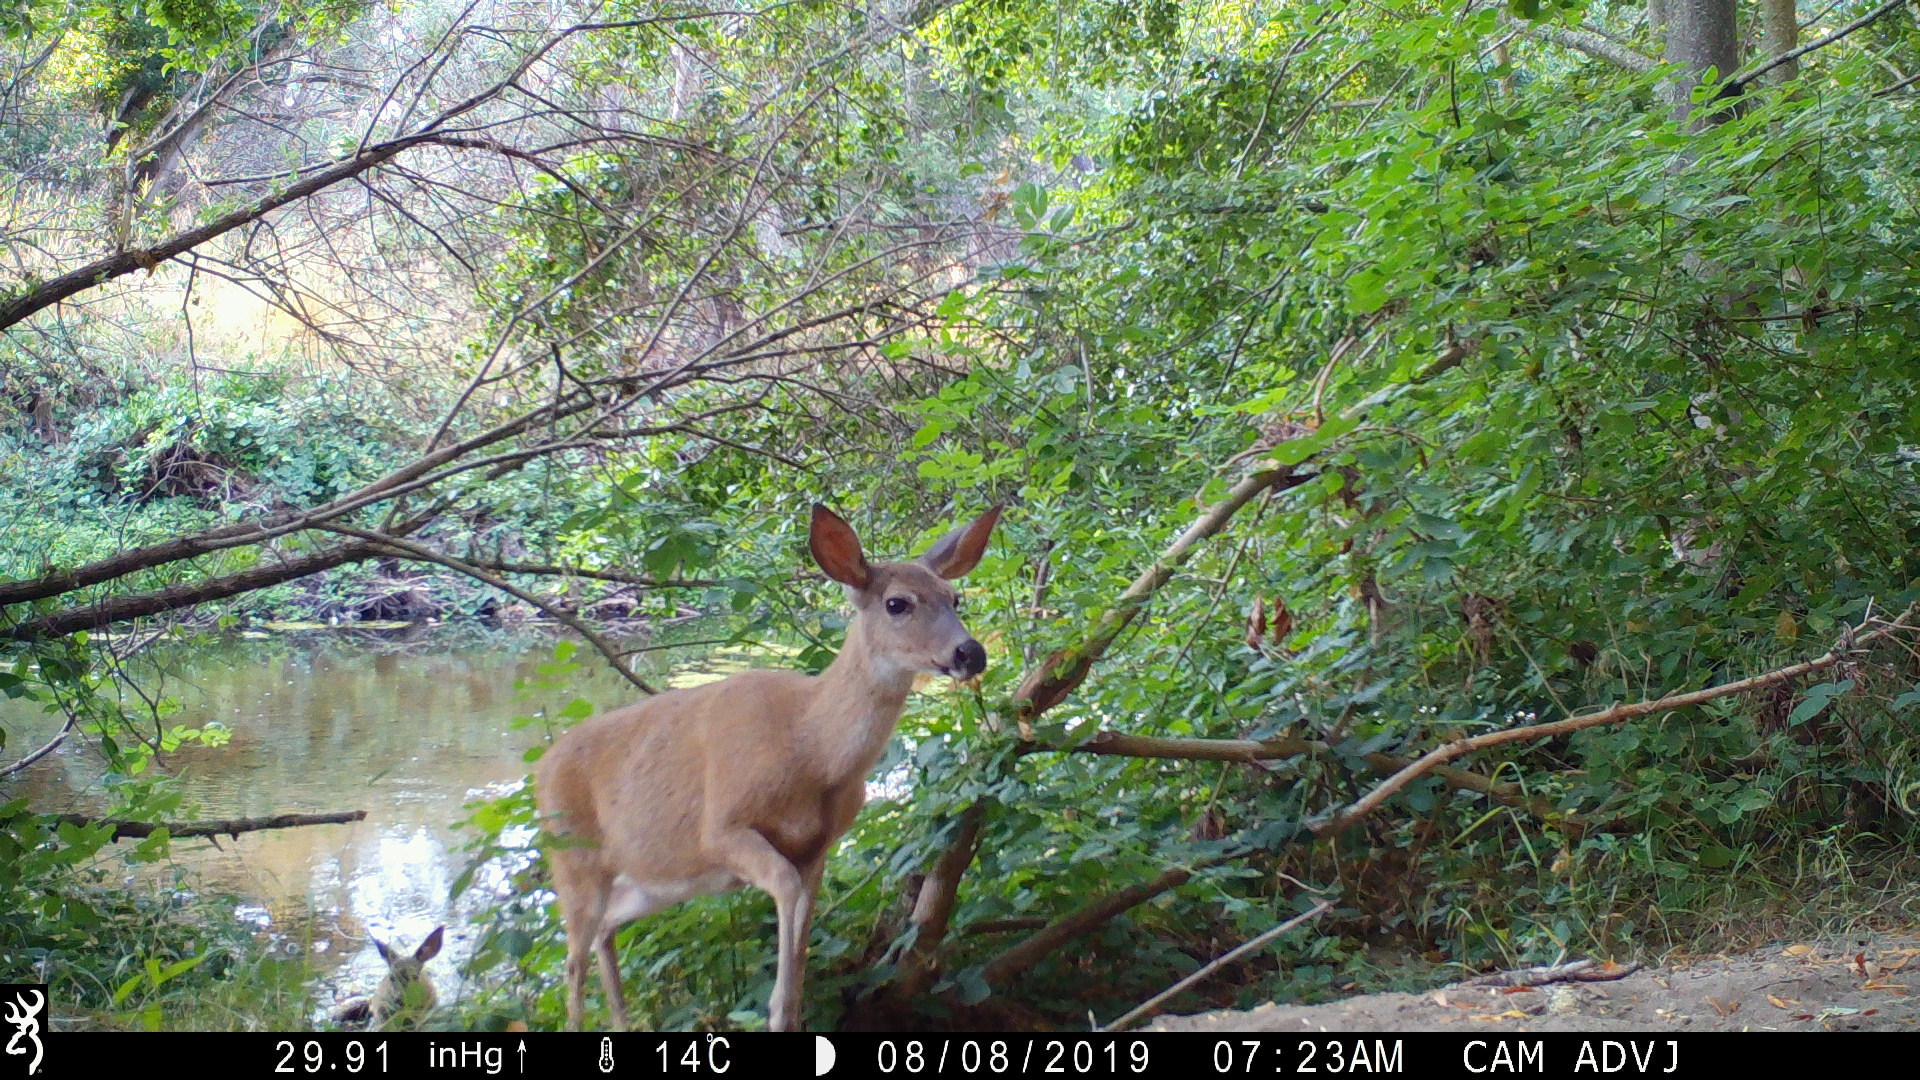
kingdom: Animalia
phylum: Chordata
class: Mammalia
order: Artiodactyla
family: Cervidae
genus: Odocoileus
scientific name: Odocoileus hemionus
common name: Mule deer
